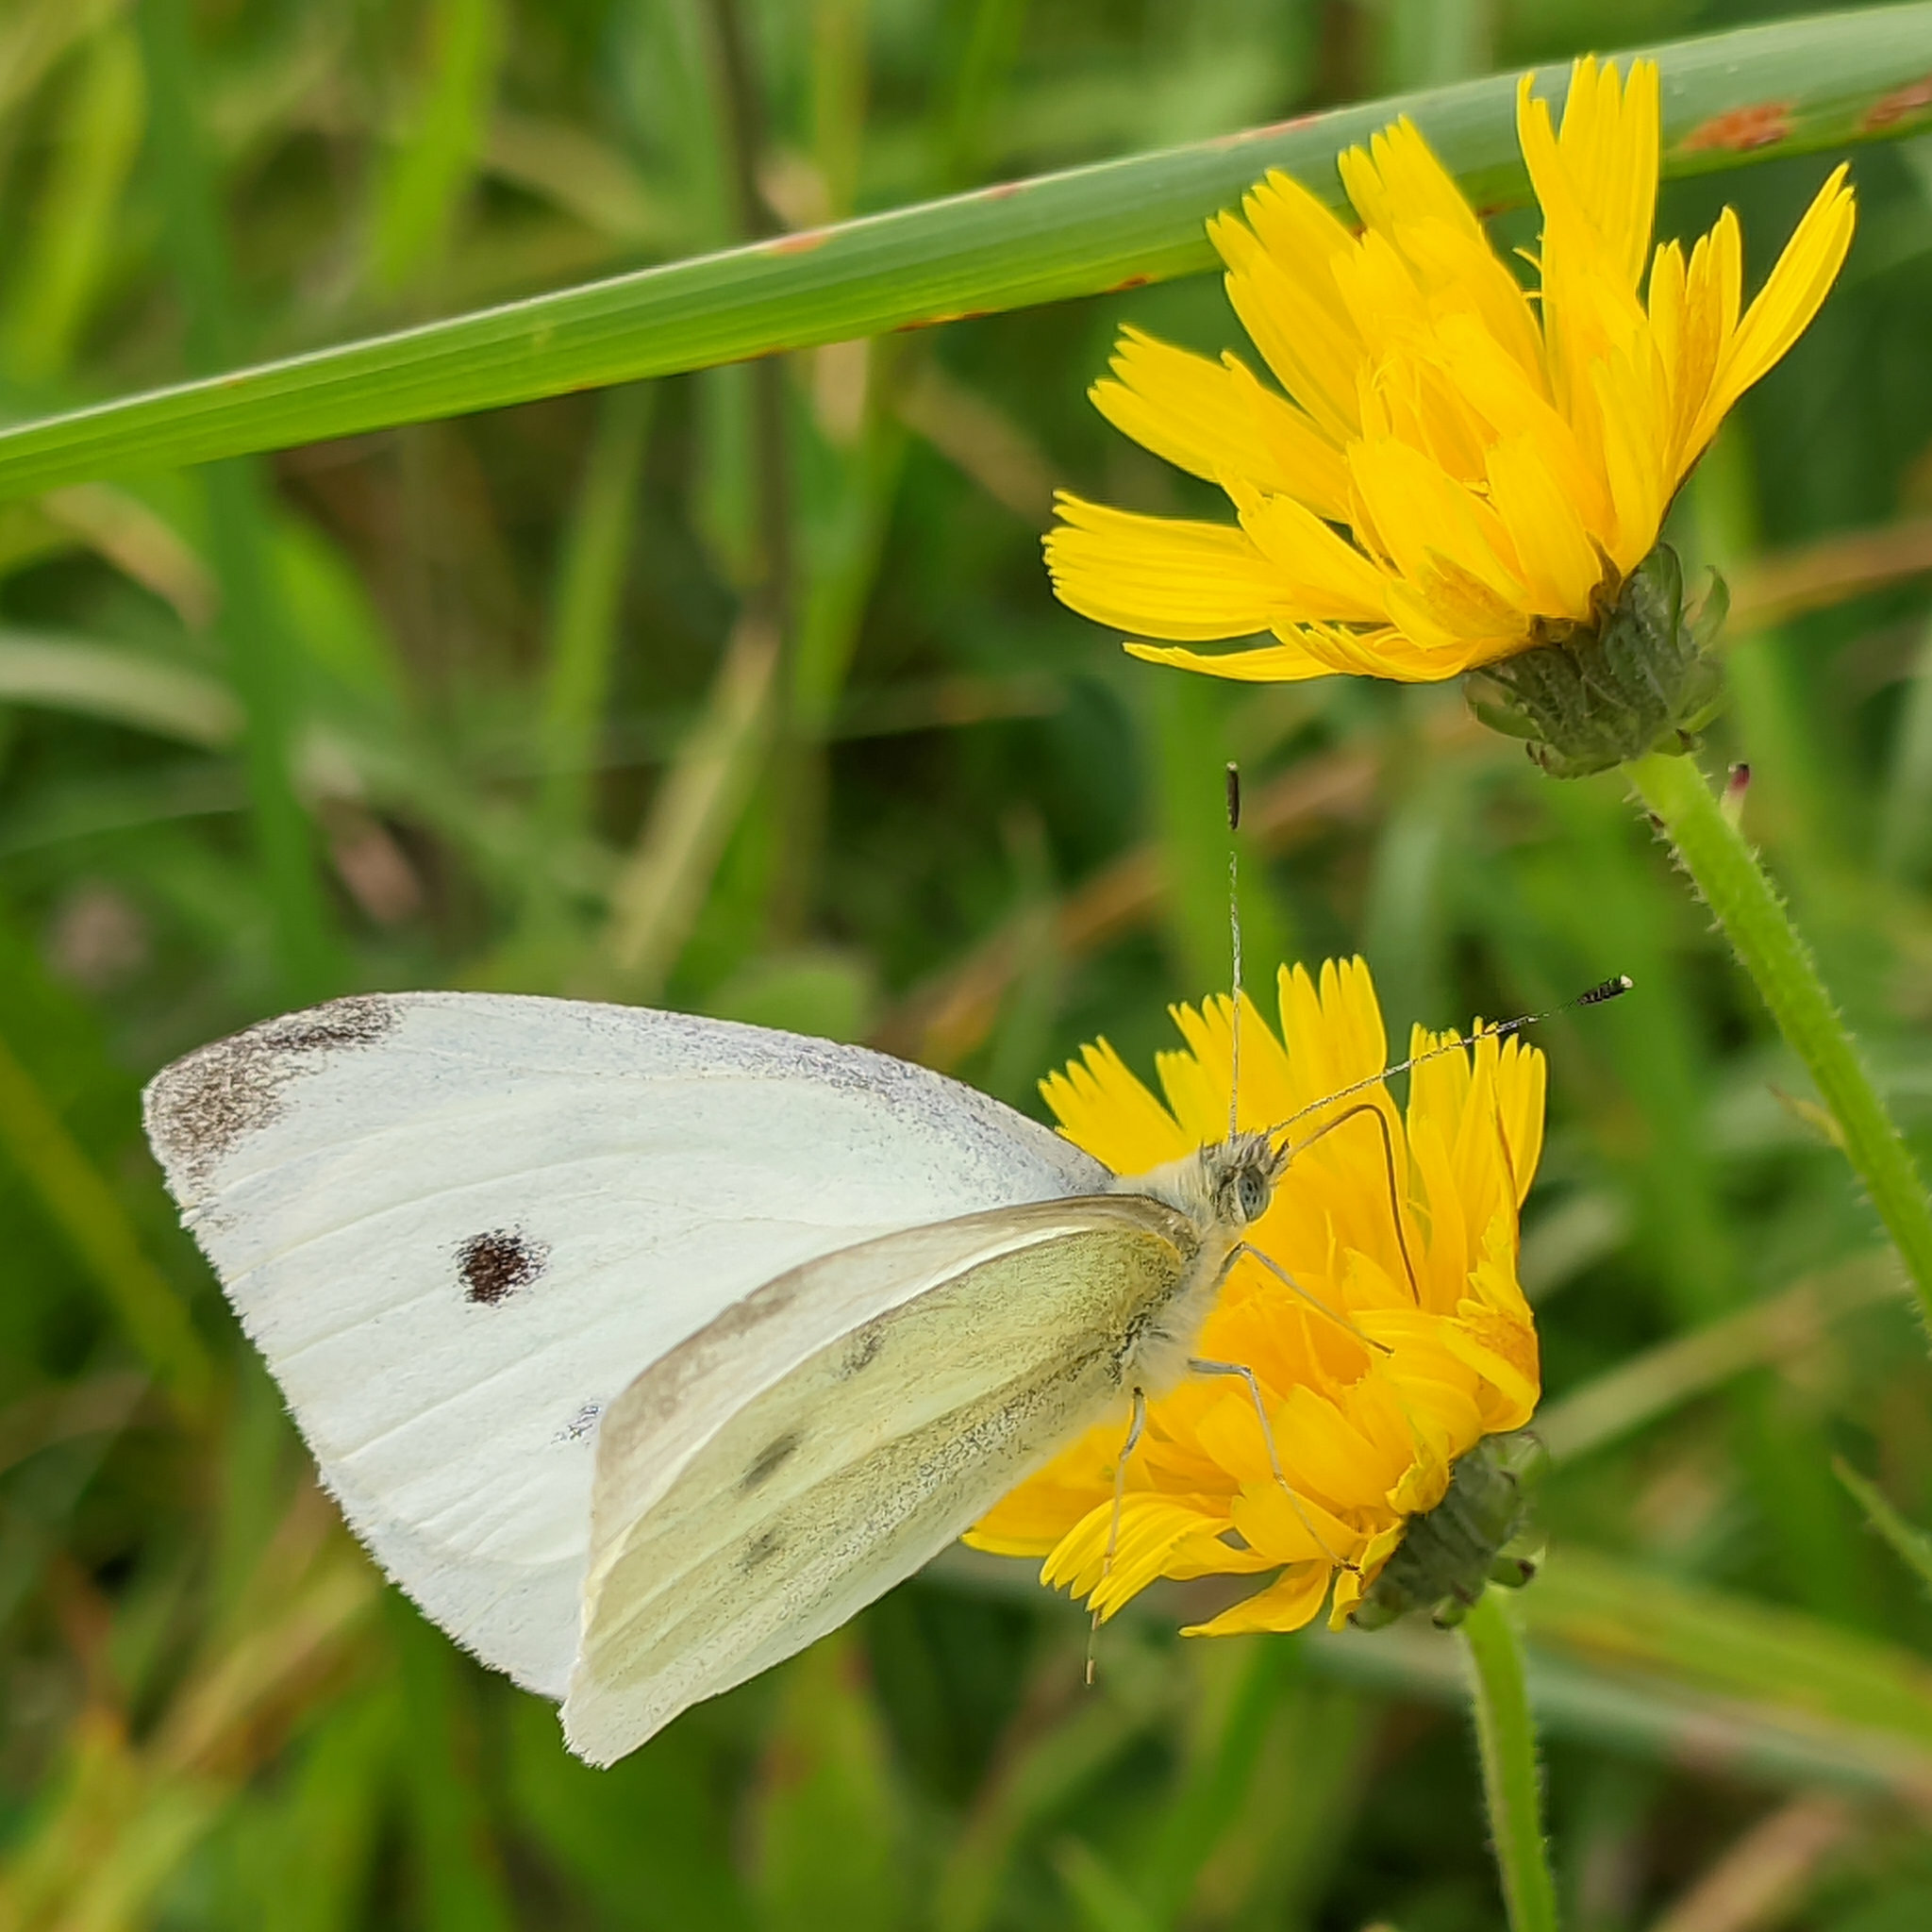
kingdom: Animalia
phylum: Arthropoda
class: Insecta
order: Lepidoptera
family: Pieridae
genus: Pieris
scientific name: Pieris rapae
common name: Small white
